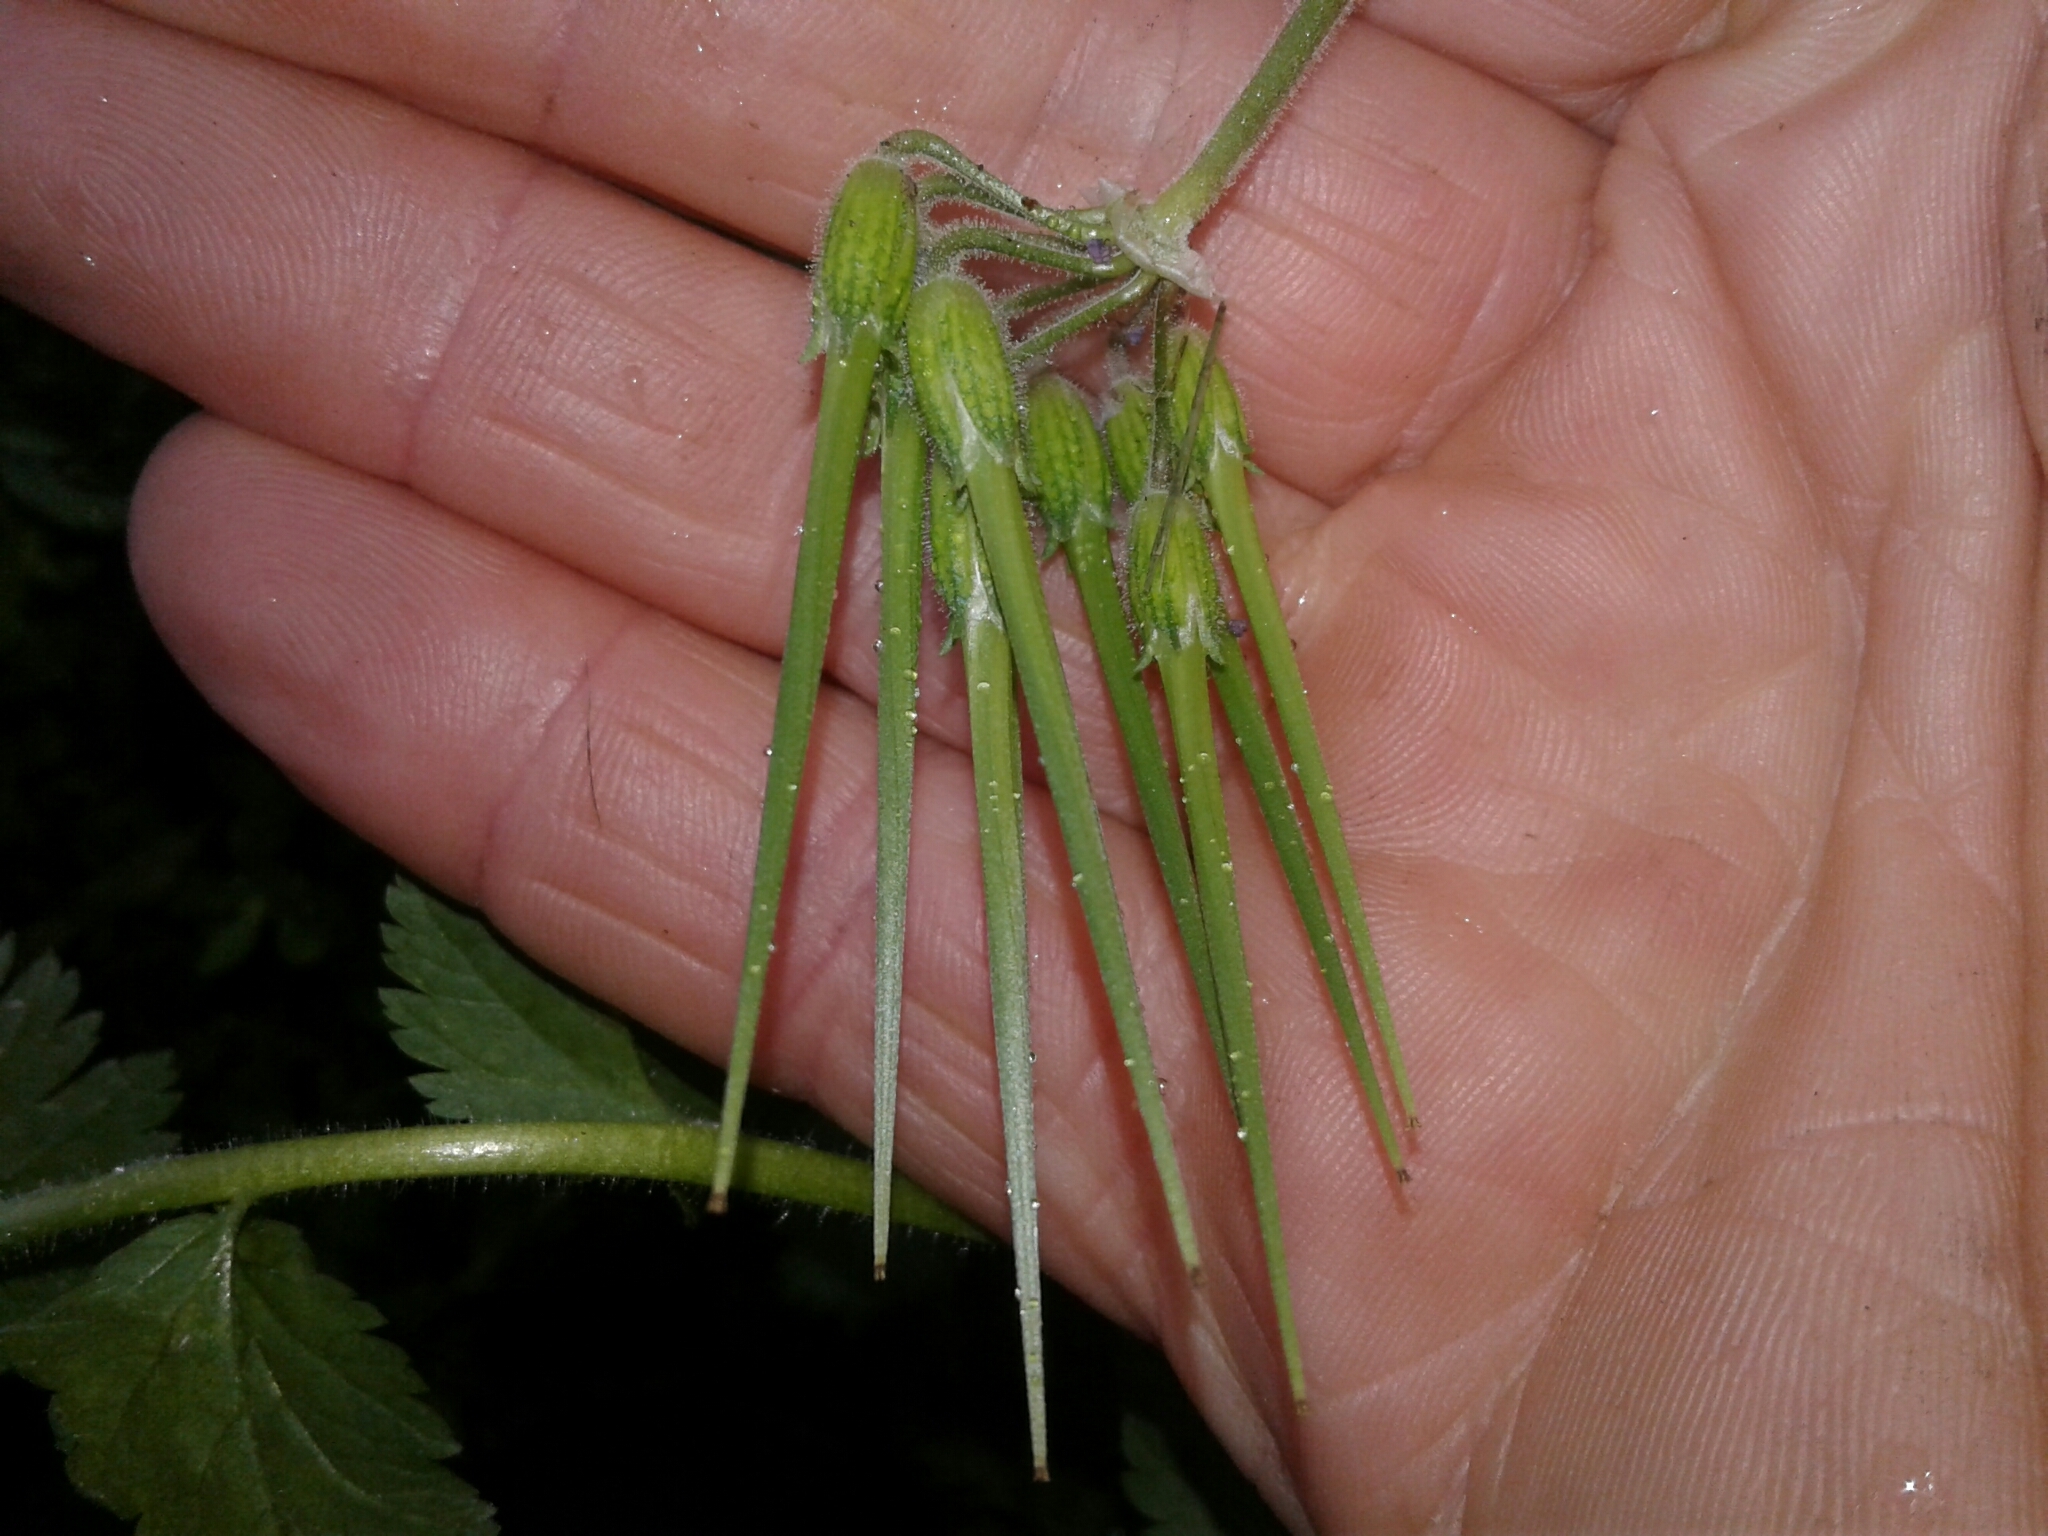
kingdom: Plantae
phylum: Tracheophyta
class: Magnoliopsida
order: Geraniales
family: Geraniaceae
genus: Erodium
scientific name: Erodium moschatum
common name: Musk stork's-bill
